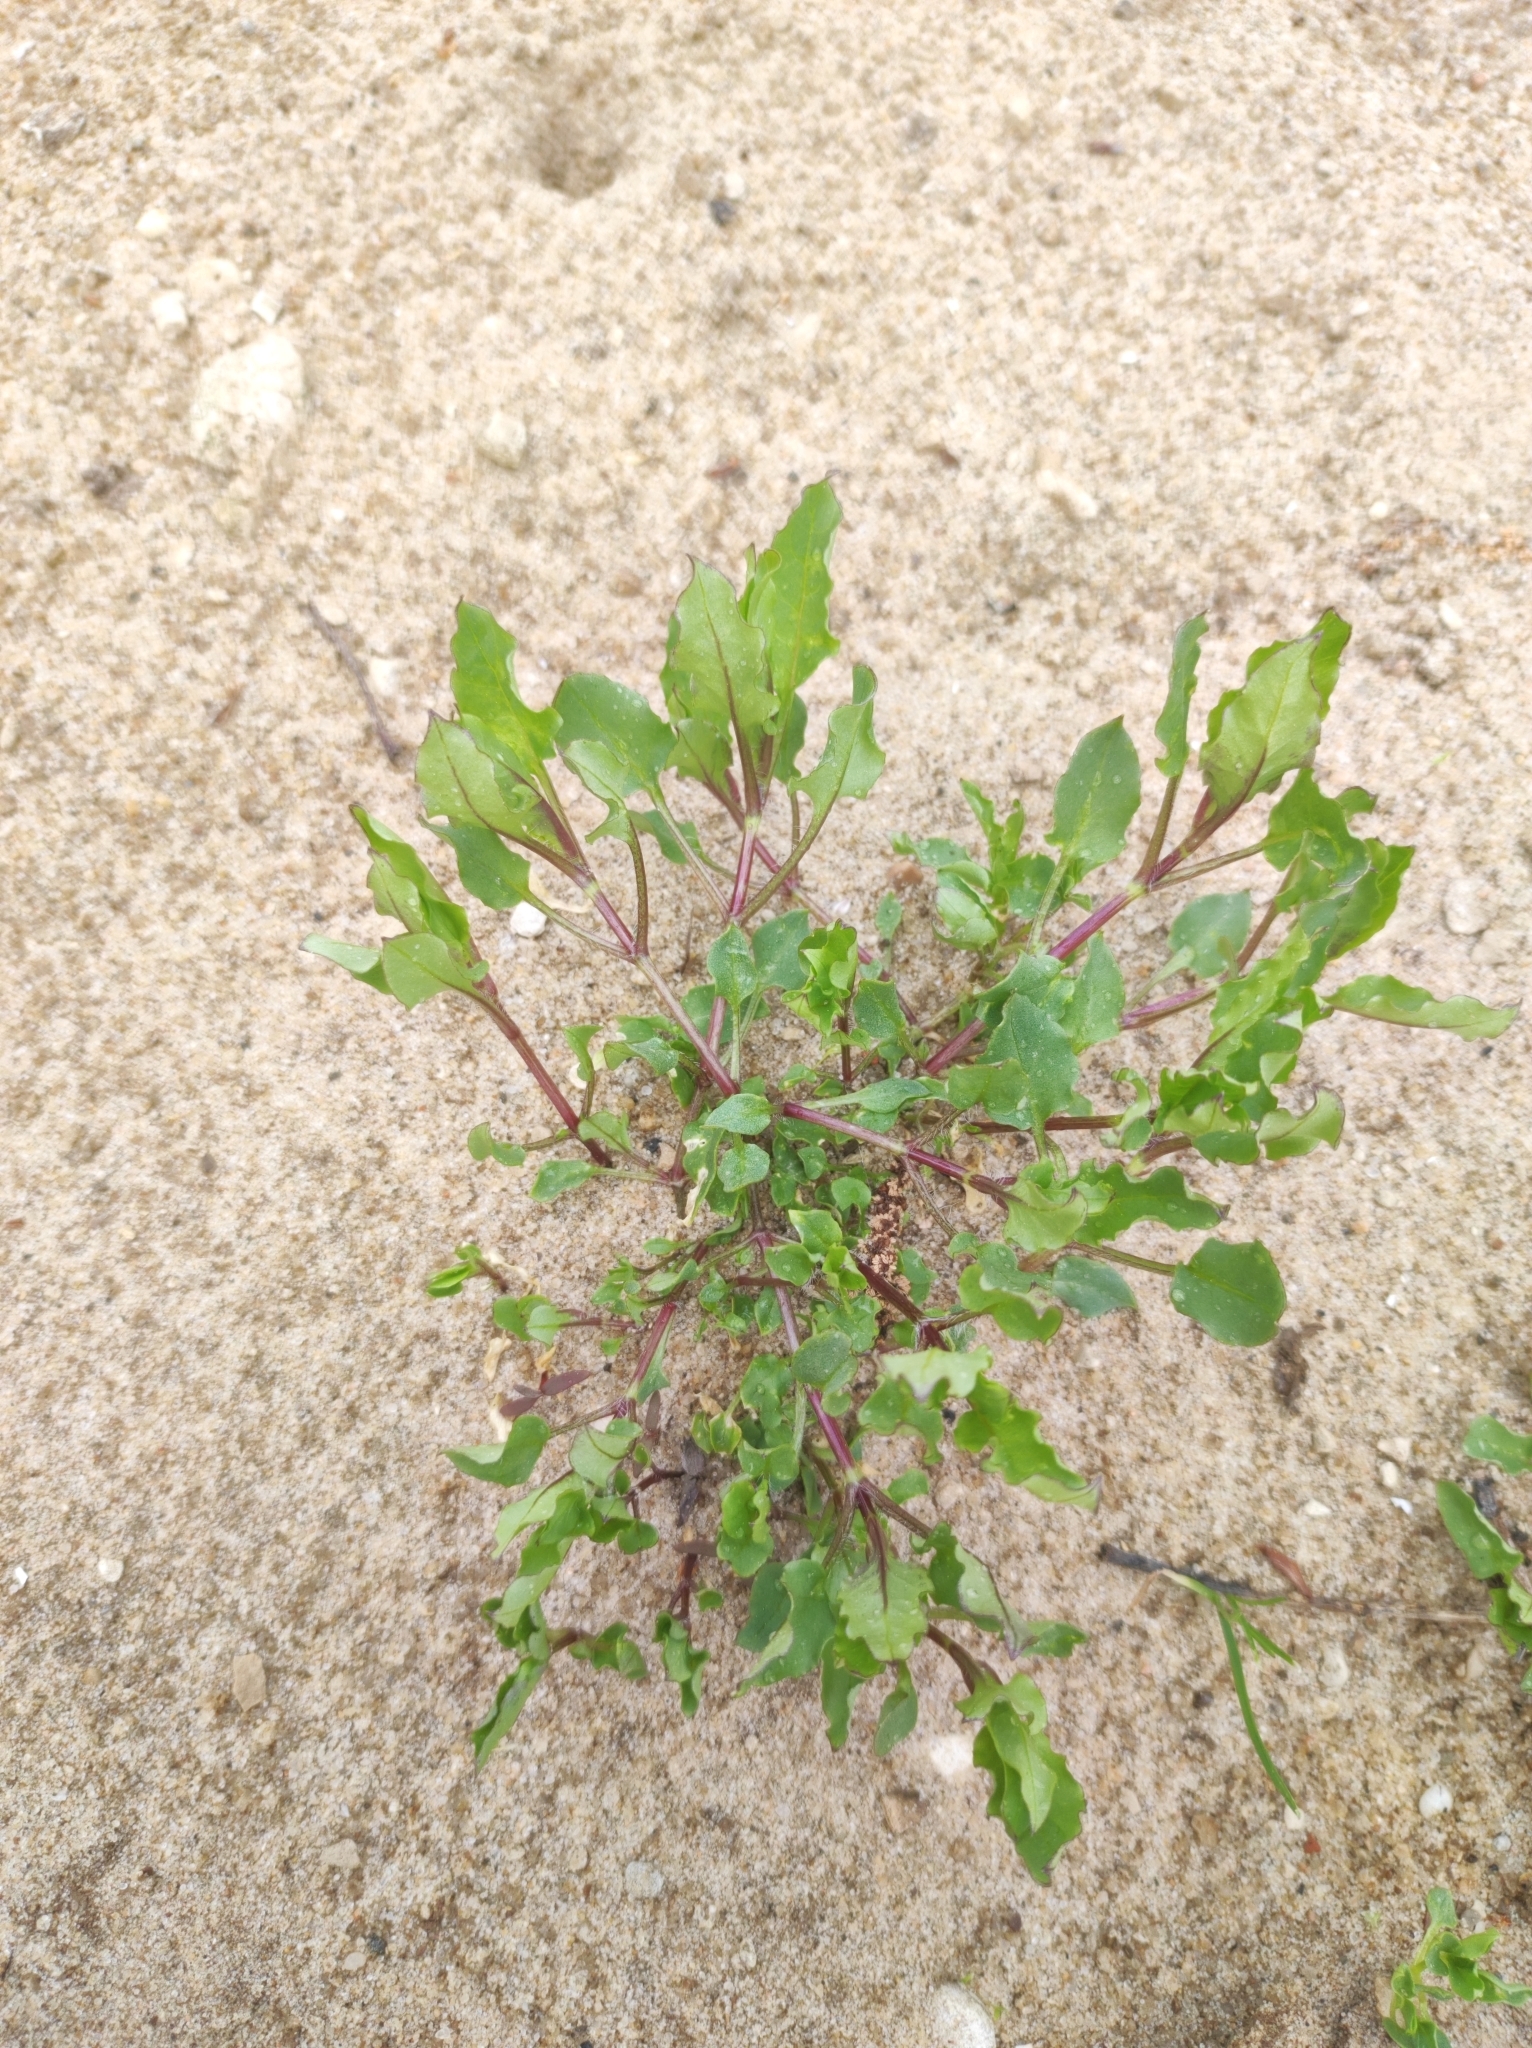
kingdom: Plantae
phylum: Tracheophyta
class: Magnoliopsida
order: Caryophyllales
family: Caryophyllaceae
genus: Stellaria
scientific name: Stellaria aquatica
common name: Water chickweed
